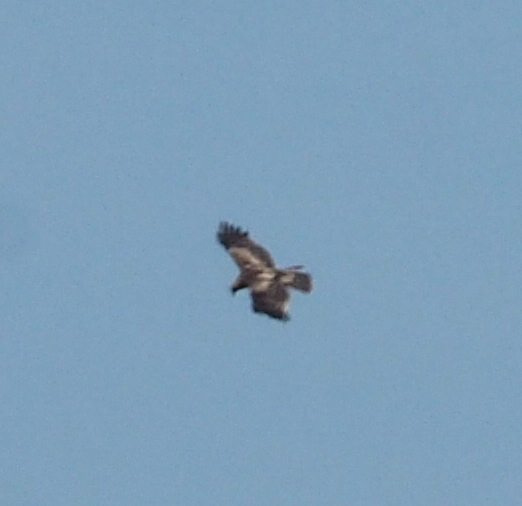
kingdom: Animalia
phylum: Chordata
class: Aves
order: Accipitriformes
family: Accipitridae
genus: Hieraaetus
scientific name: Hieraaetus pennatus
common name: Booted eagle
